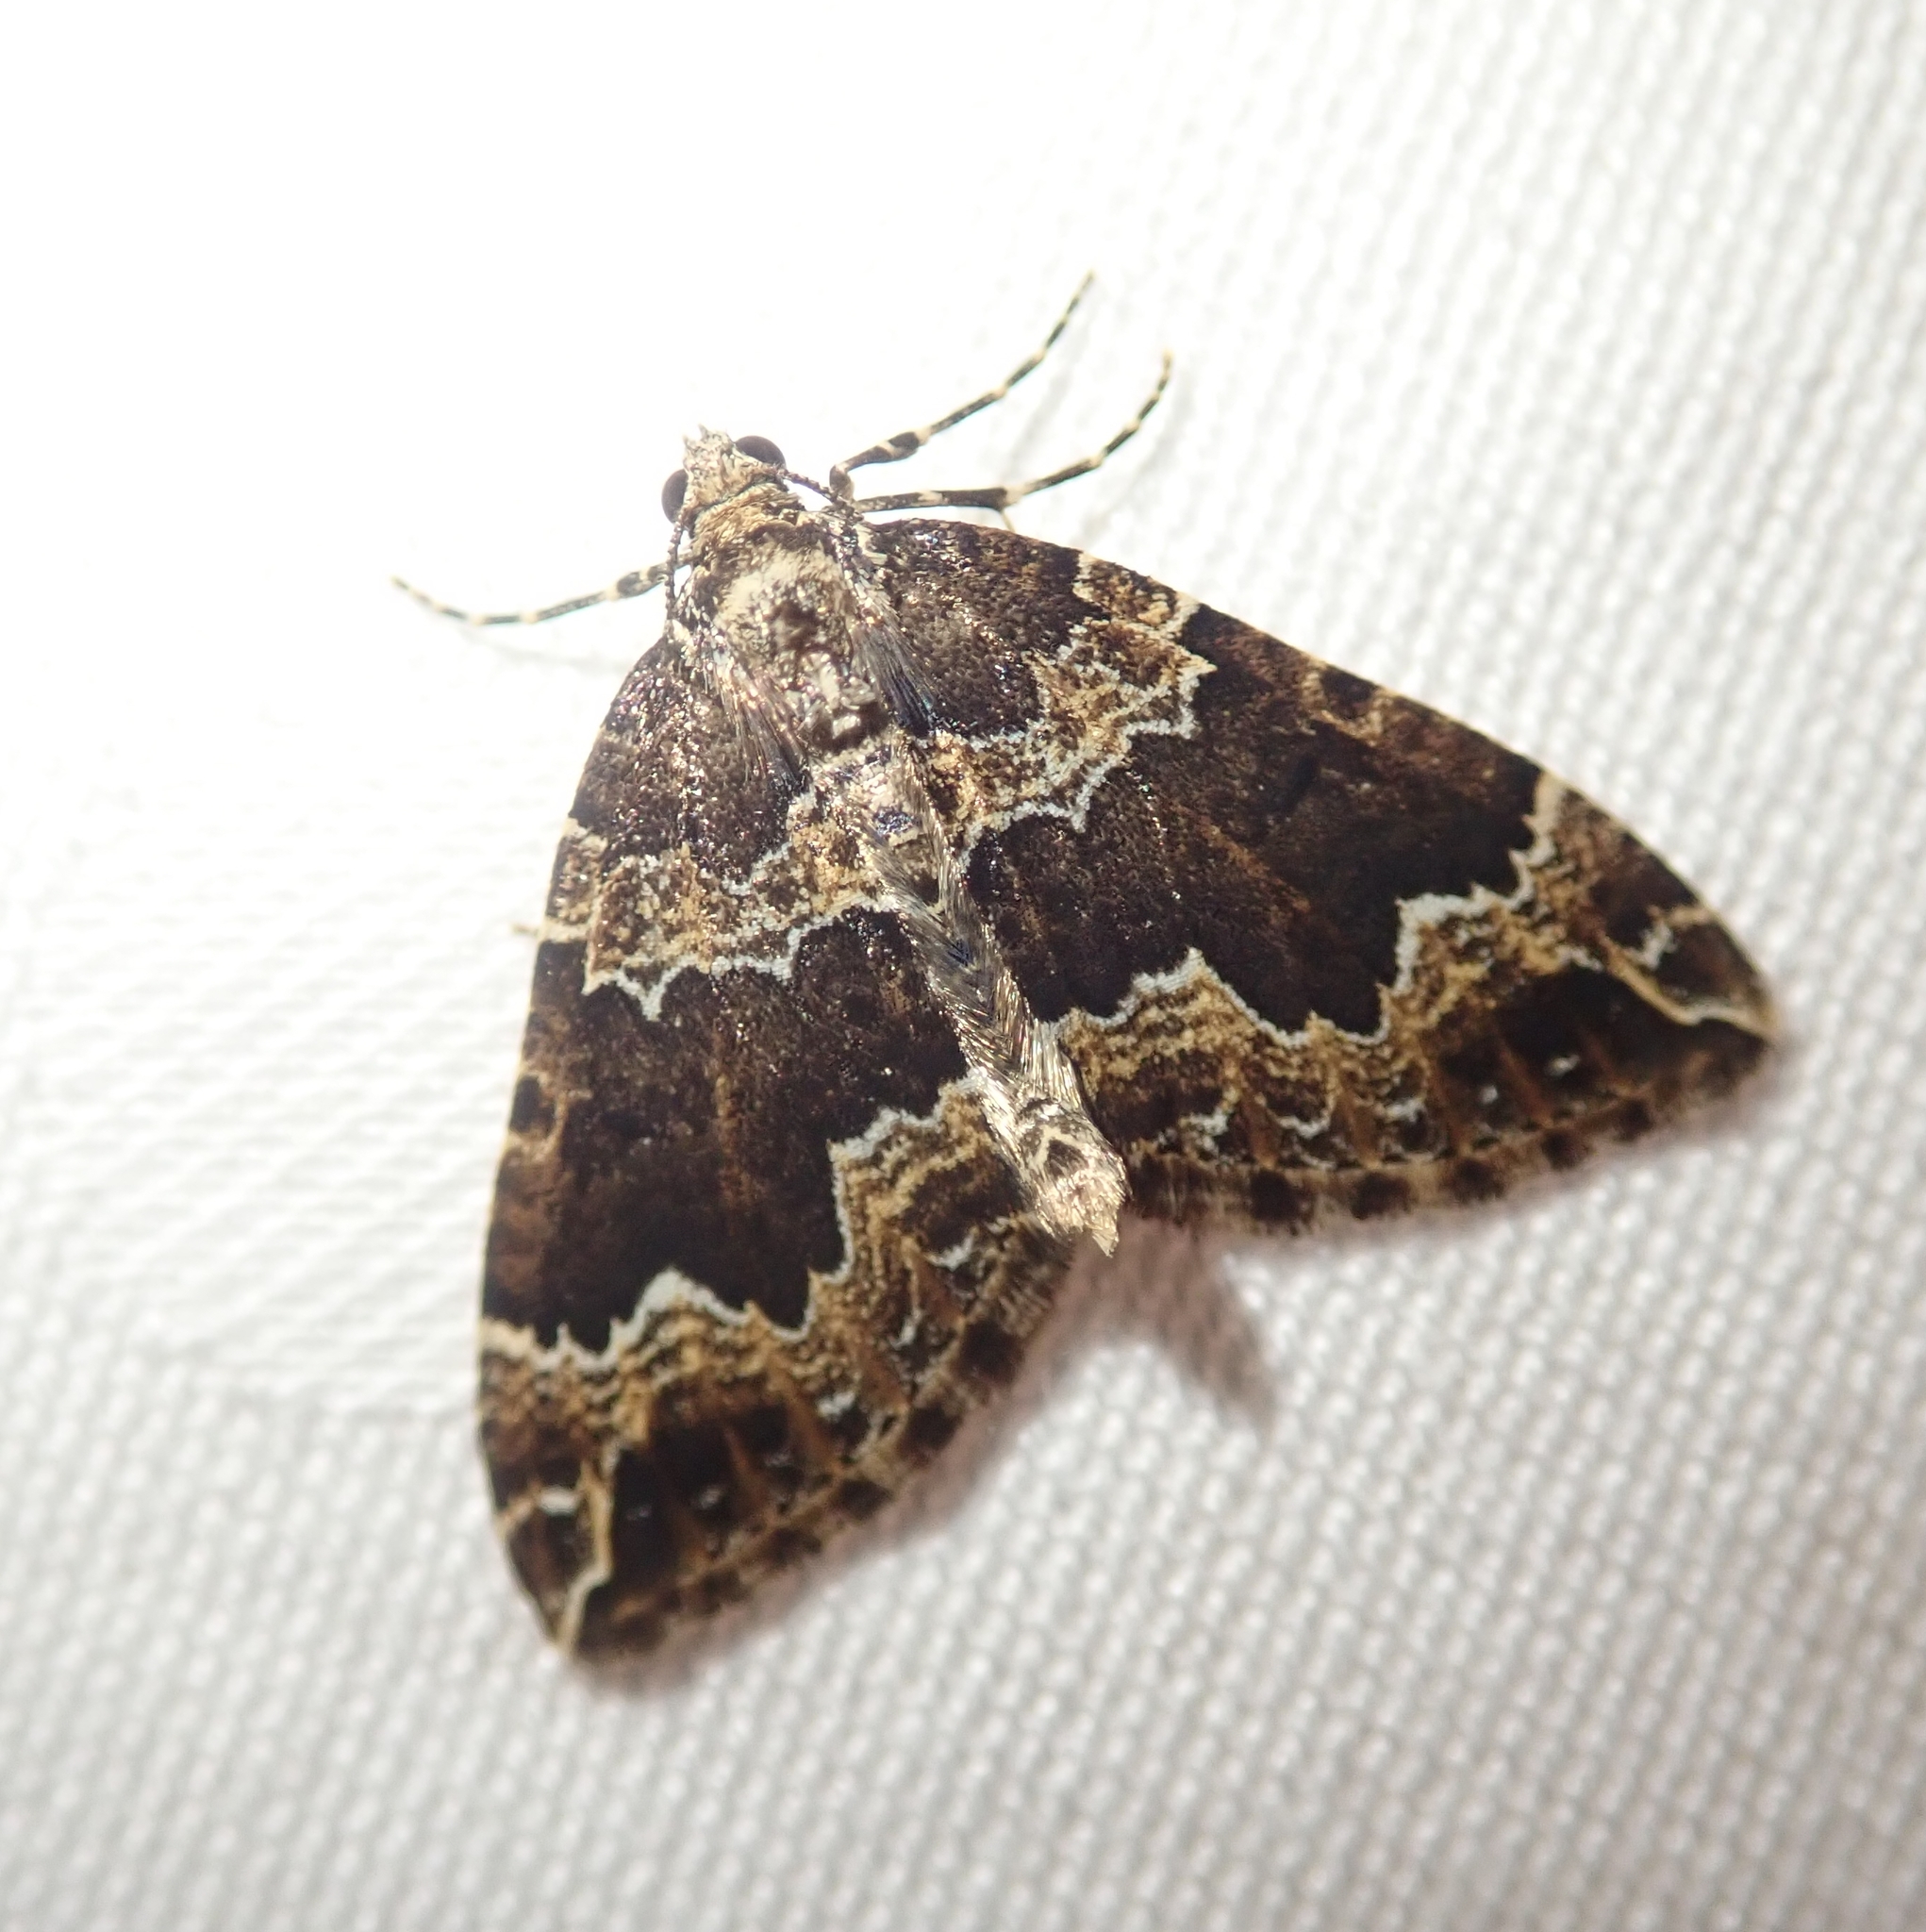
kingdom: Animalia
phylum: Arthropoda
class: Insecta
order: Lepidoptera
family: Geometridae
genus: Lampropteryx
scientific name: Lampropteryx suffumata
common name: Water carpet
